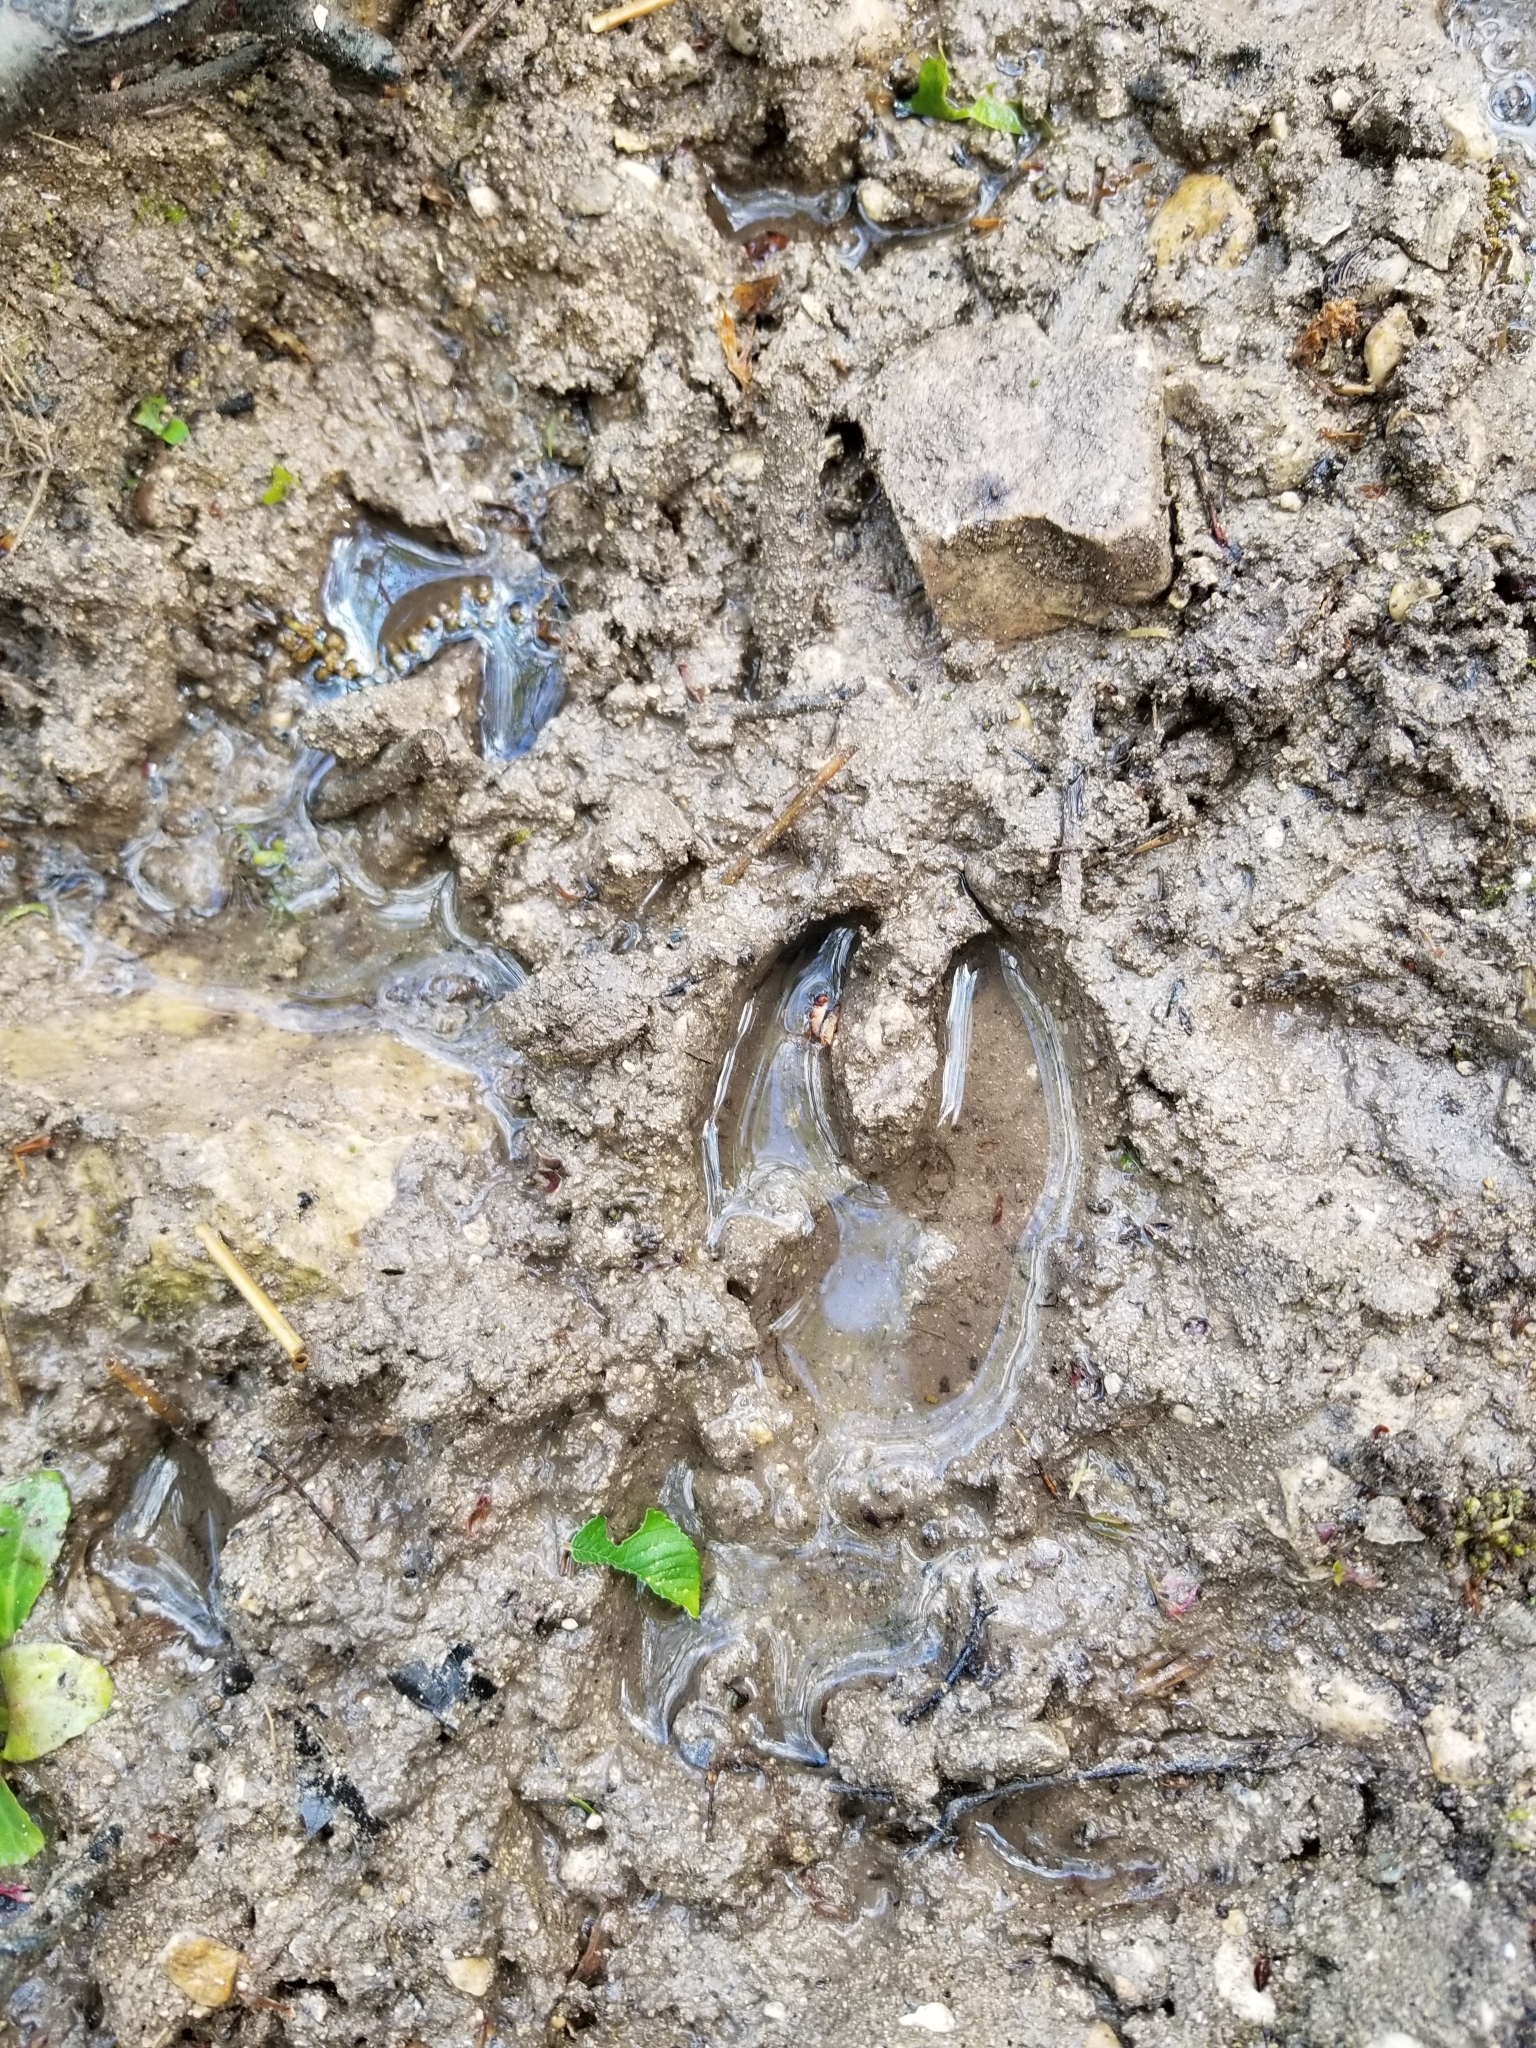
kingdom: Animalia
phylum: Chordata
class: Mammalia
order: Artiodactyla
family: Cervidae
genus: Odocoileus
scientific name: Odocoileus virginianus
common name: White-tailed deer
